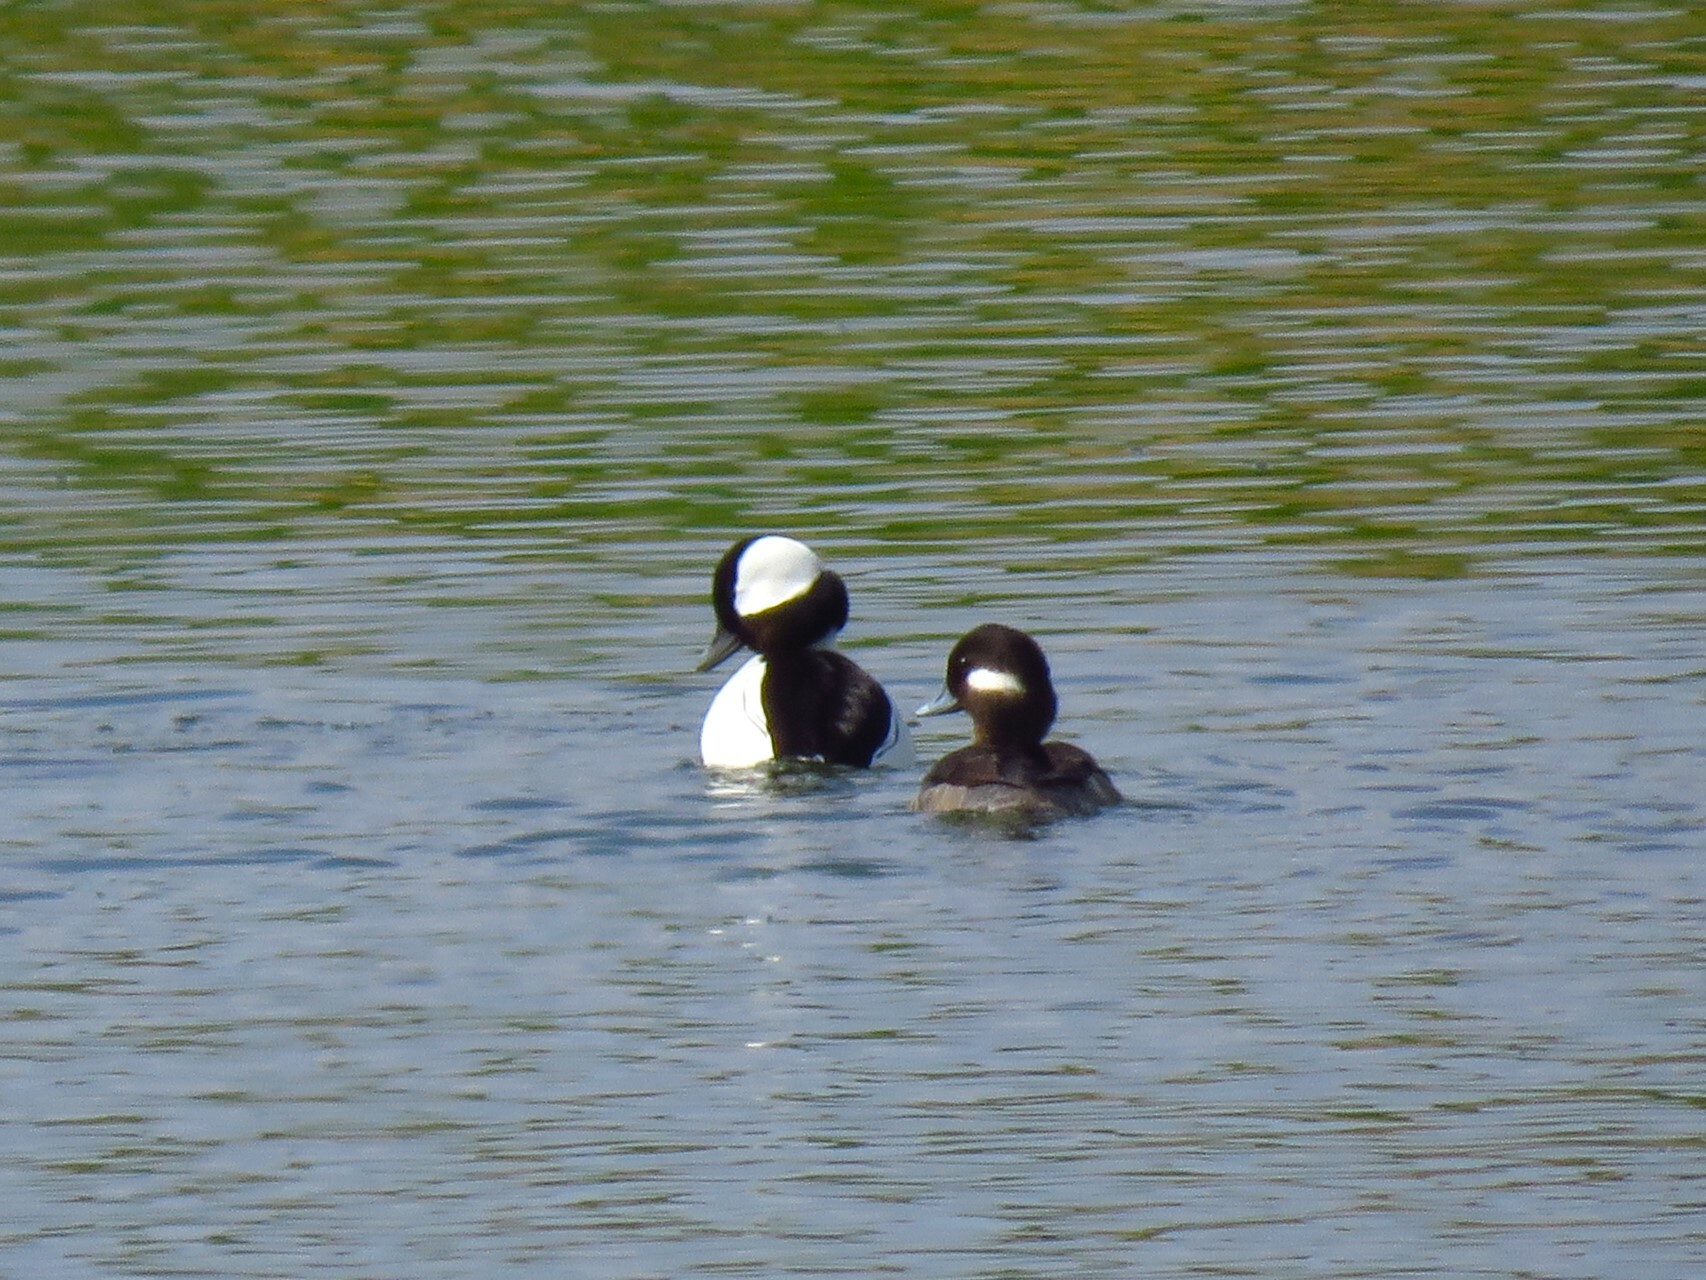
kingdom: Animalia
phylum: Chordata
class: Aves
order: Anseriformes
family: Anatidae
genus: Bucephala
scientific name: Bucephala albeola
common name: Bufflehead
